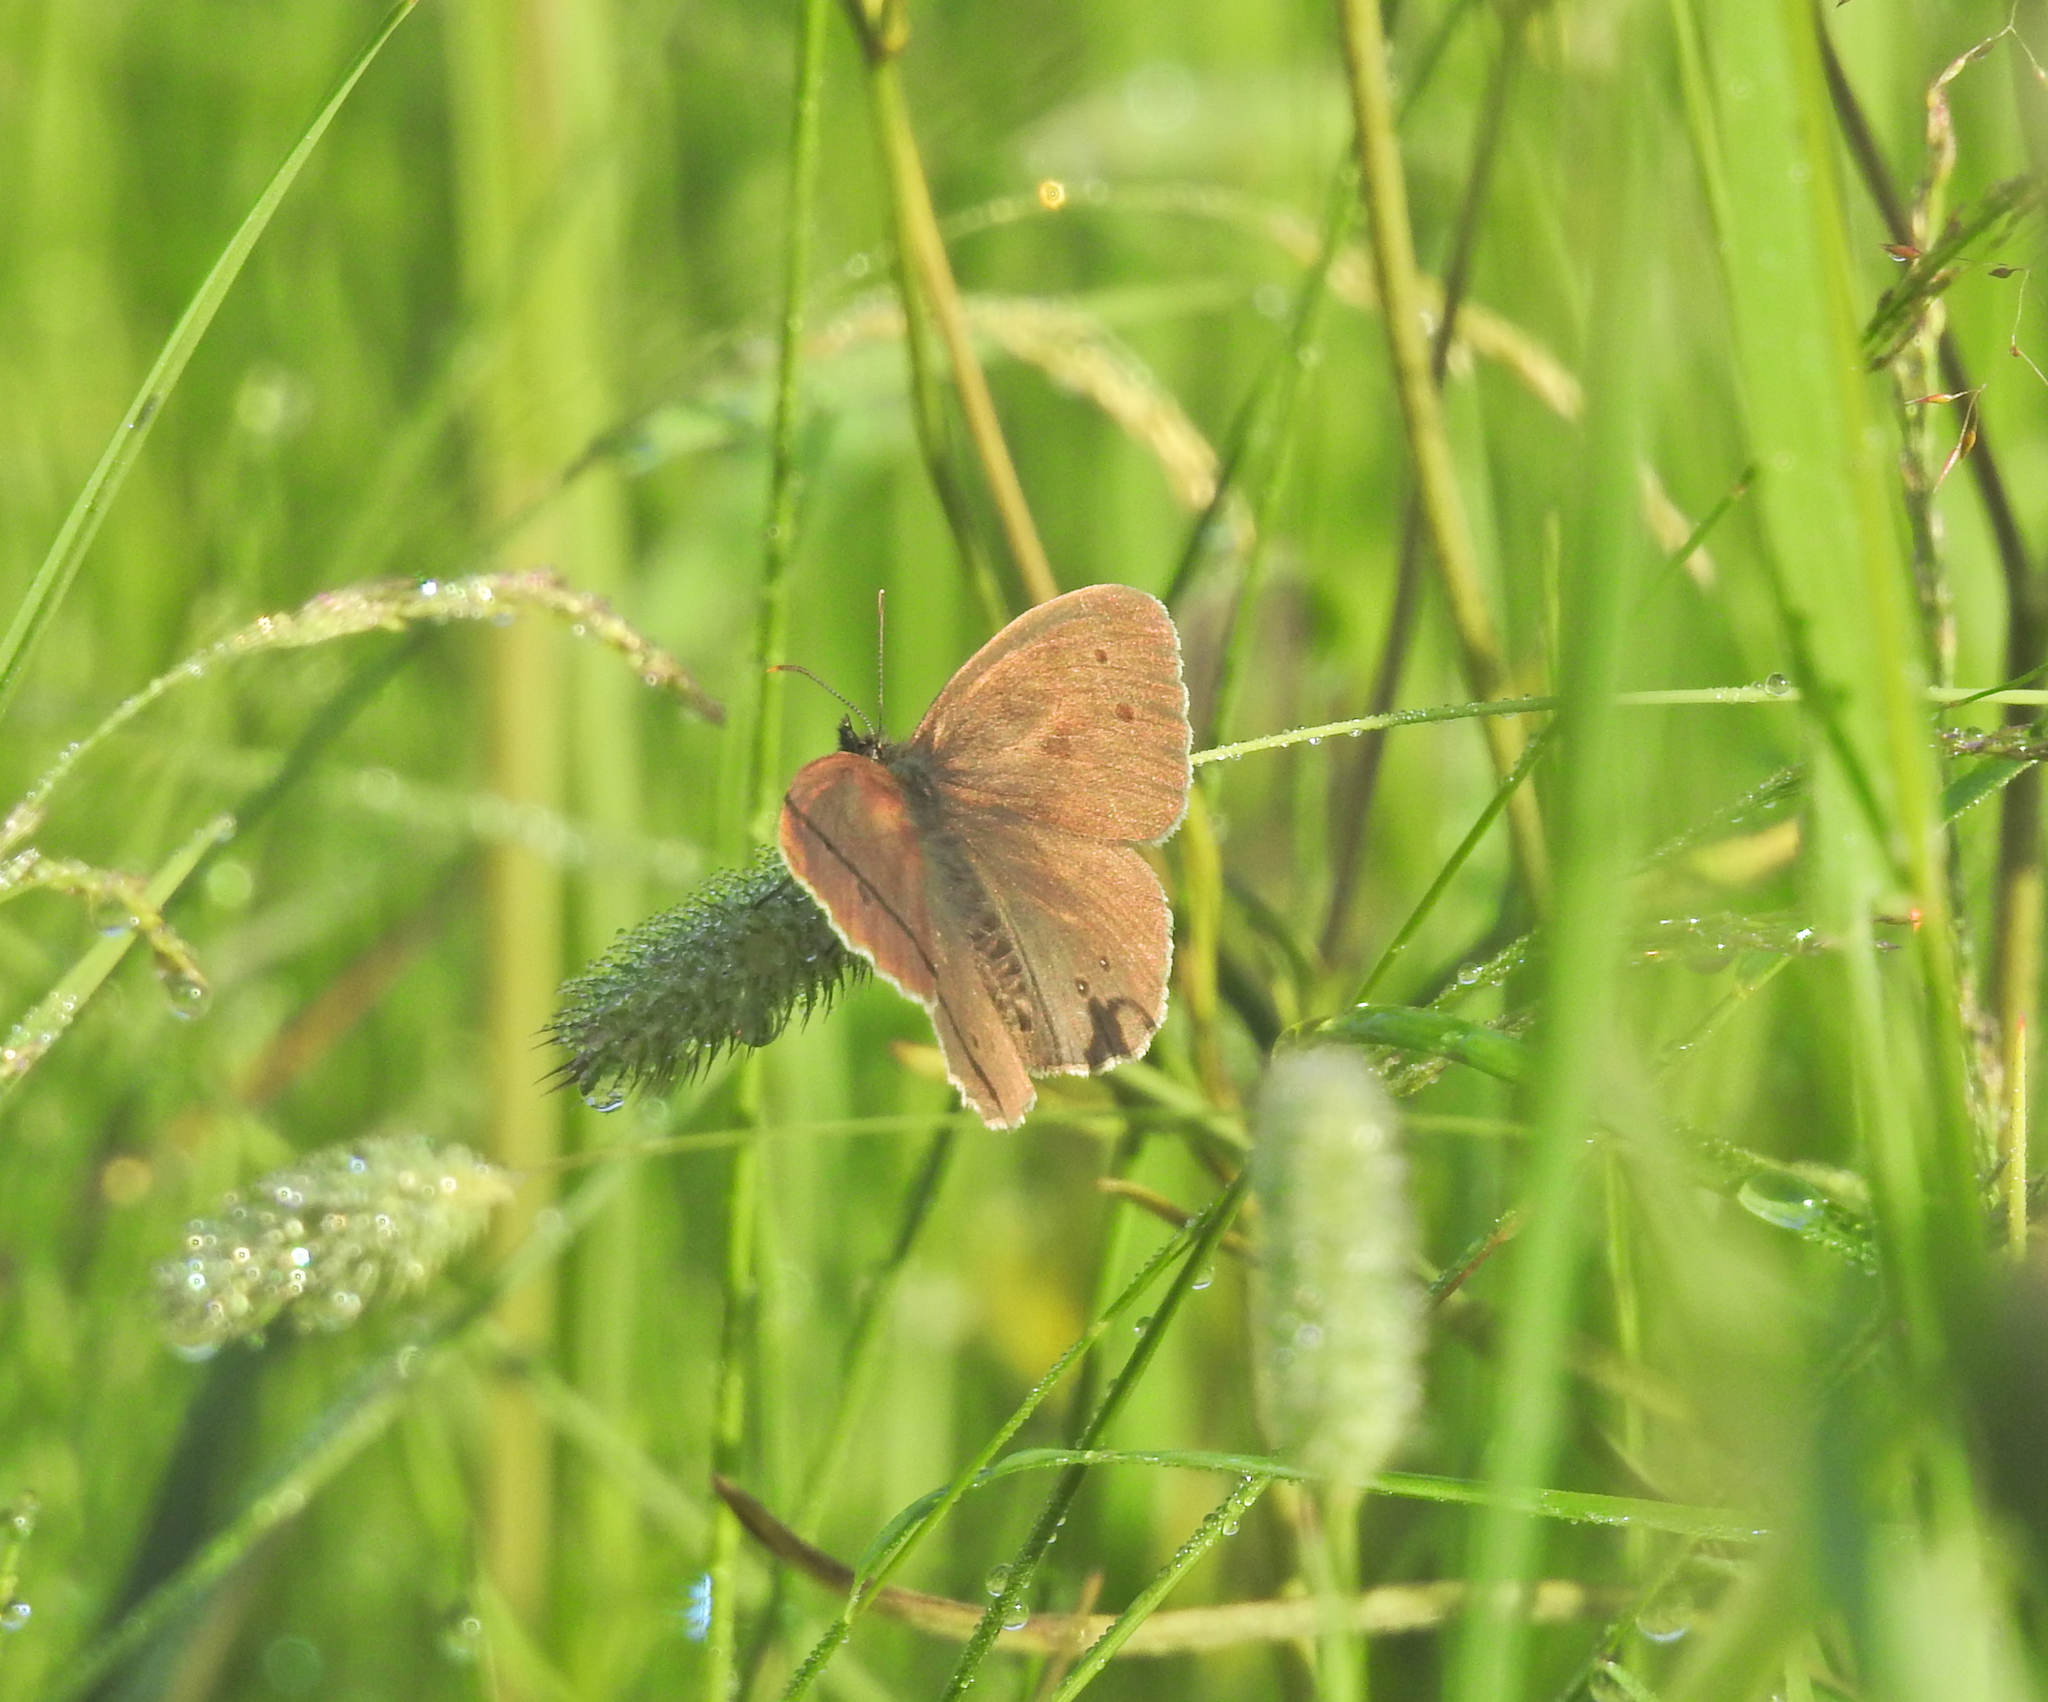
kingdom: Animalia
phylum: Arthropoda
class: Insecta
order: Lepidoptera
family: Nymphalidae
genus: Aphantopus
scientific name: Aphantopus hyperantus
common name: Ringlet
